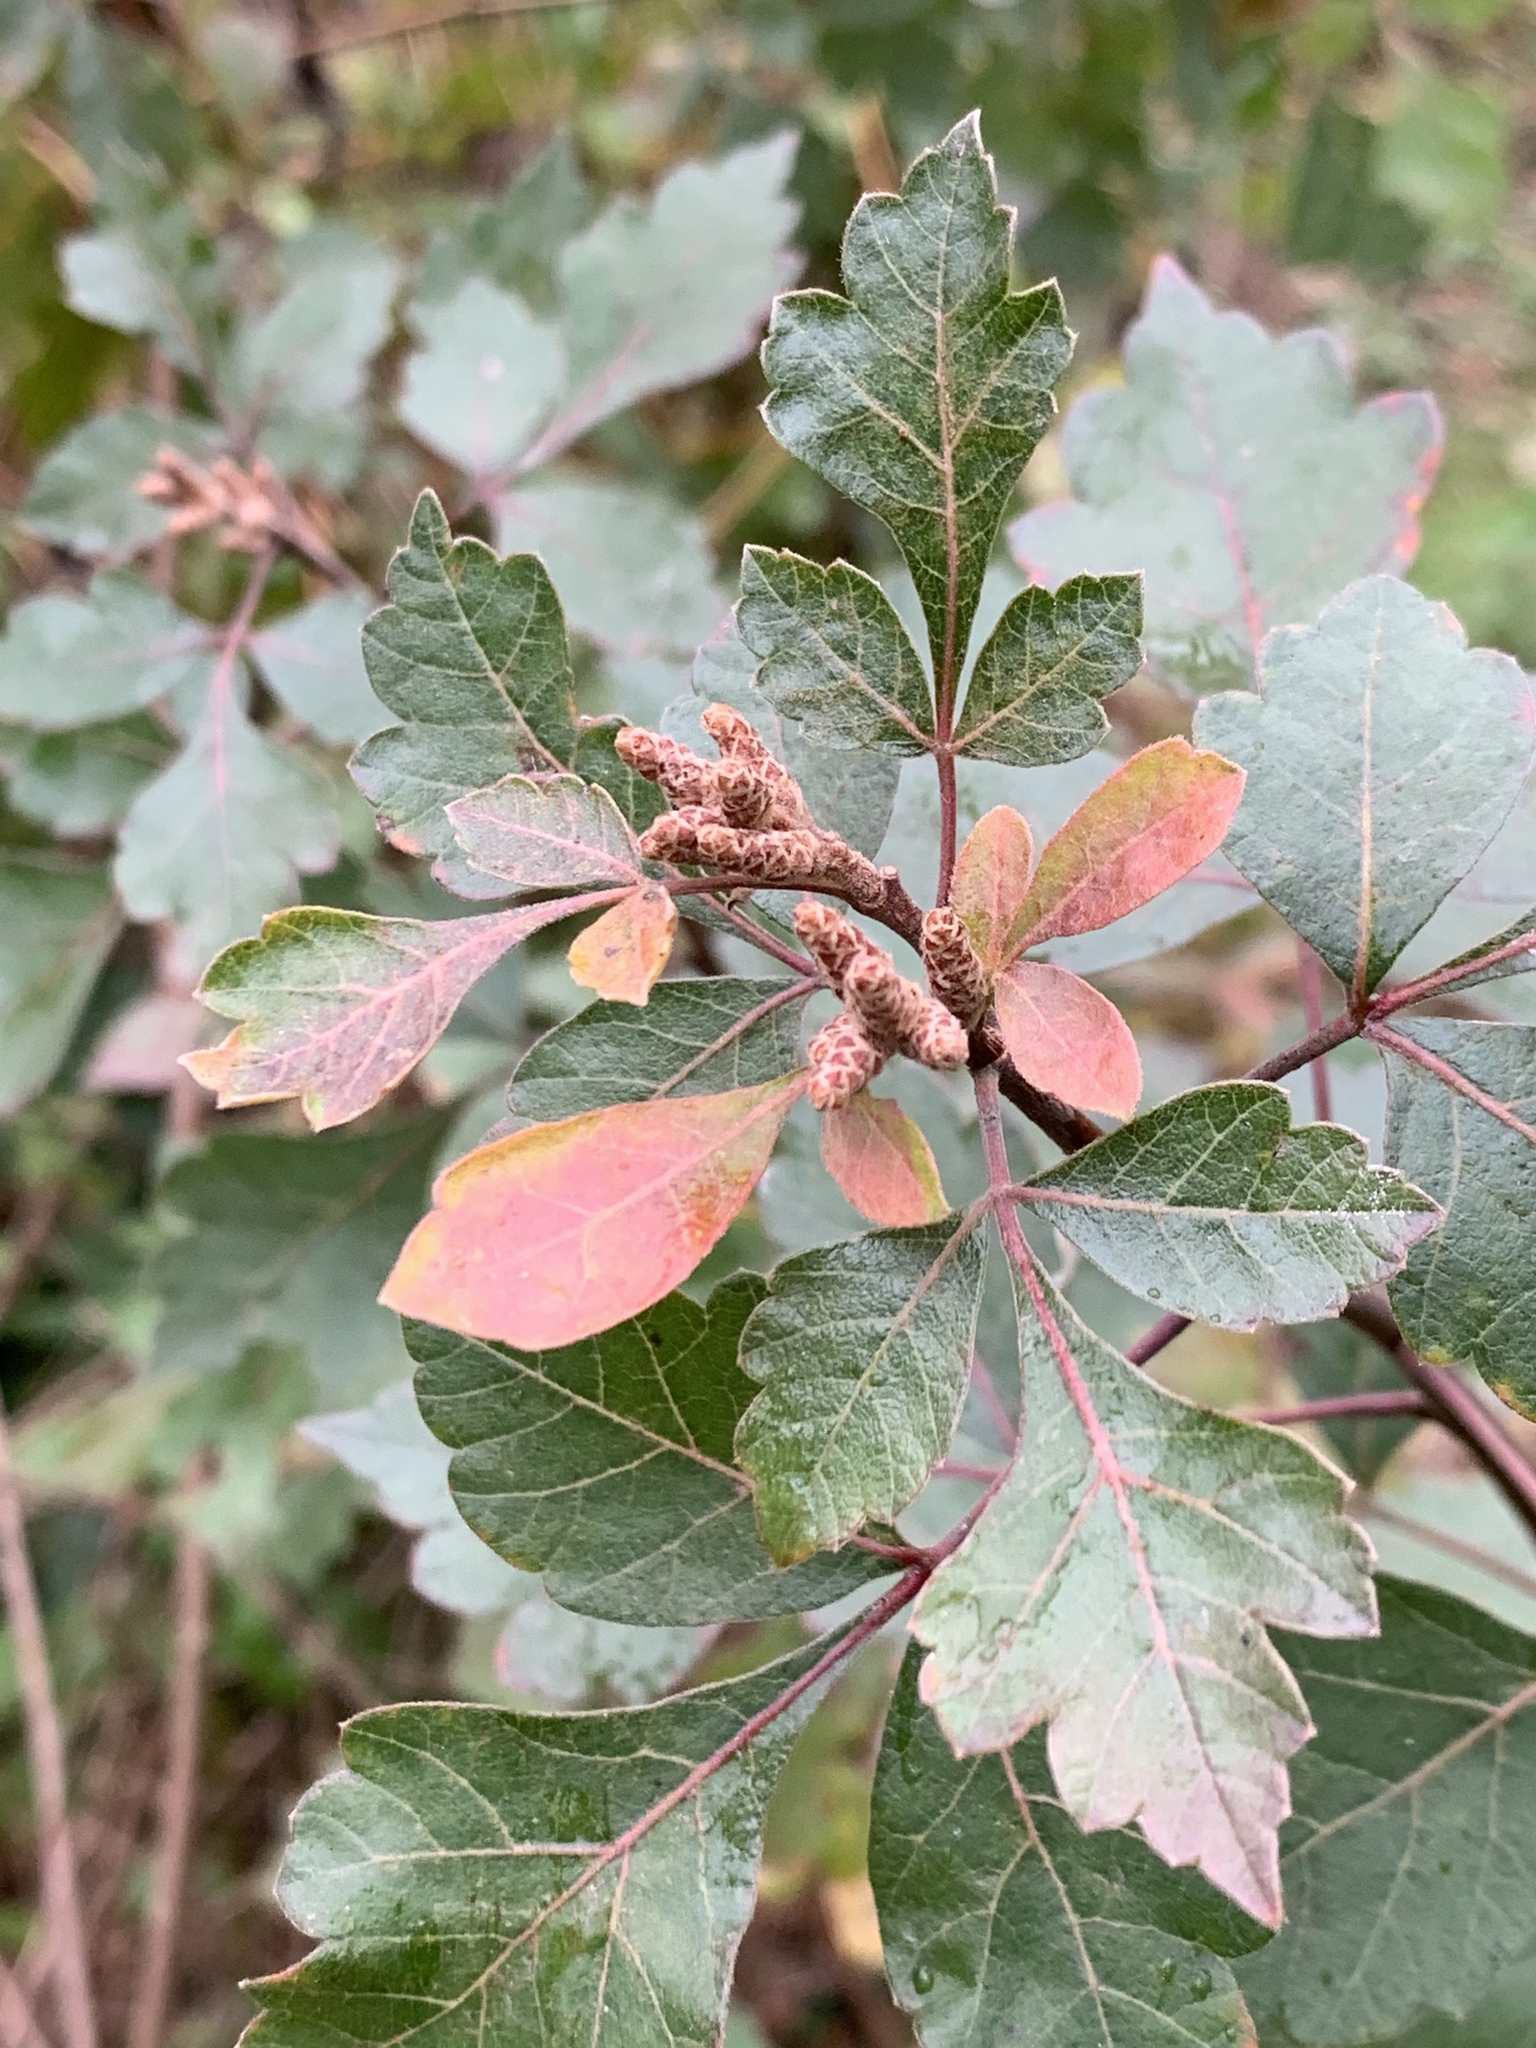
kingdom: Plantae
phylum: Tracheophyta
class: Magnoliopsida
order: Sapindales
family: Anacardiaceae
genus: Rhus
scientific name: Rhus aromatica
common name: Aromatic sumac
